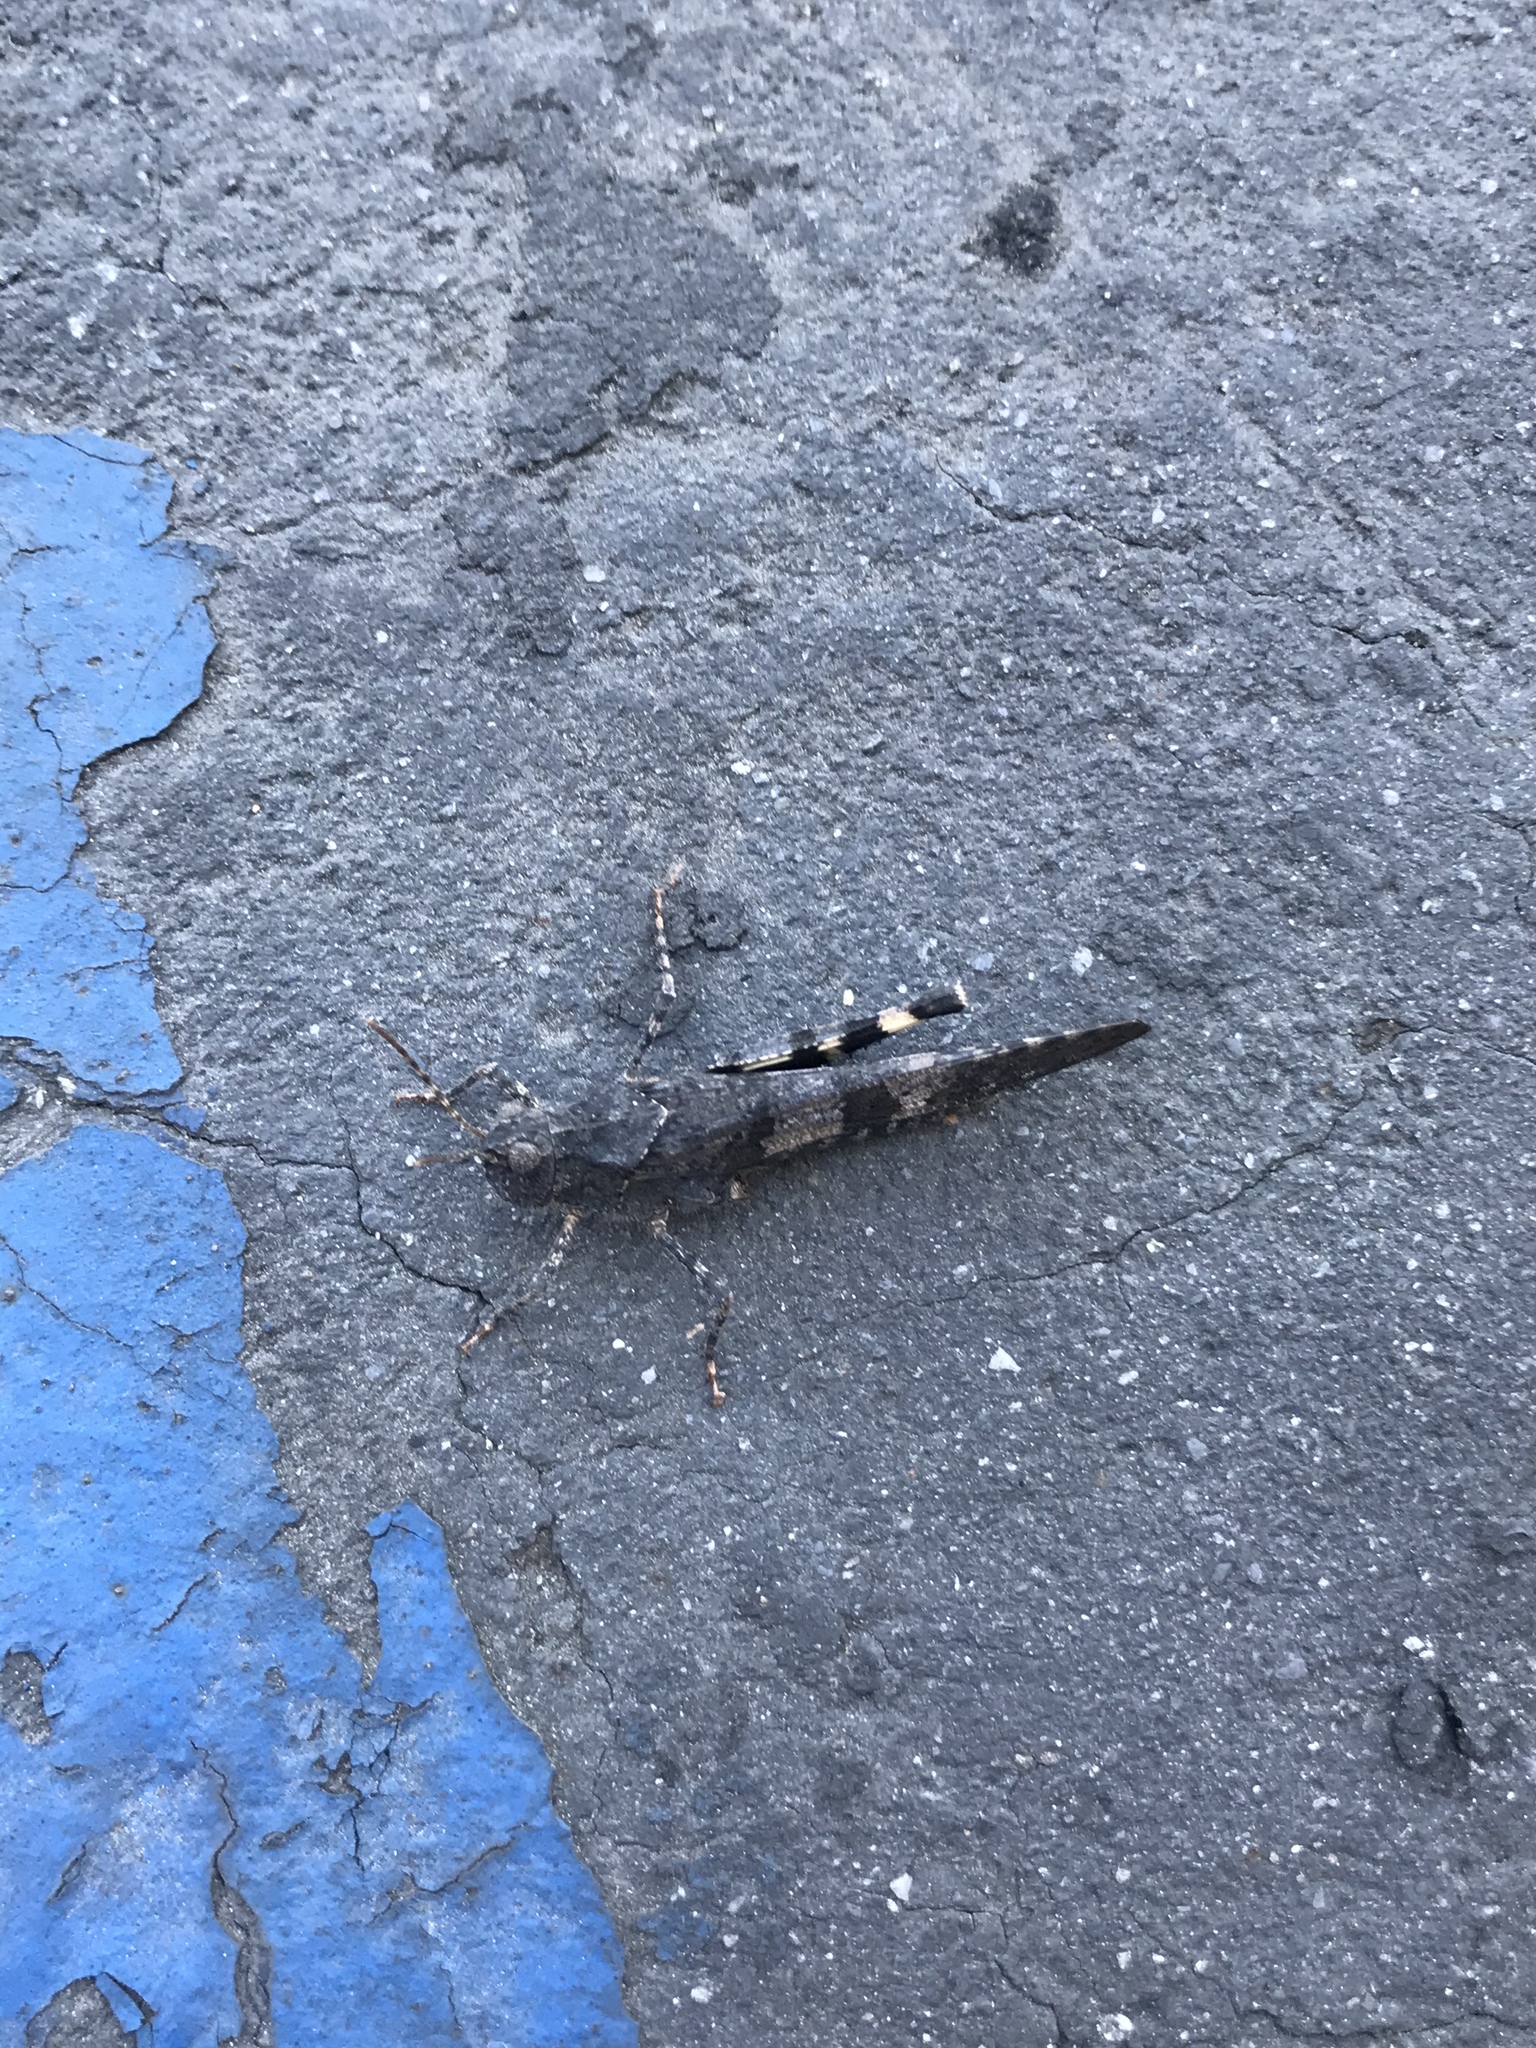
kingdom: Animalia
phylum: Arthropoda
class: Insecta
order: Orthoptera
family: Acrididae
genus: Trimerotropis
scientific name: Trimerotropis fontana
